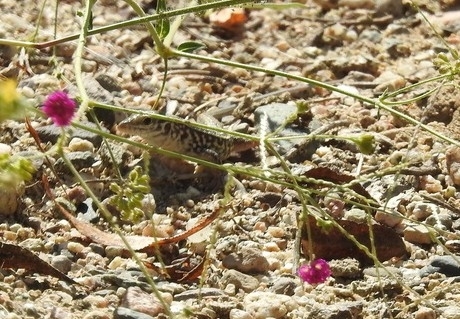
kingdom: Animalia
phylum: Chordata
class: Squamata
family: Teiidae
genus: Aspidoscelis
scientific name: Aspidoscelis tigris
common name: Tiger whiptail
